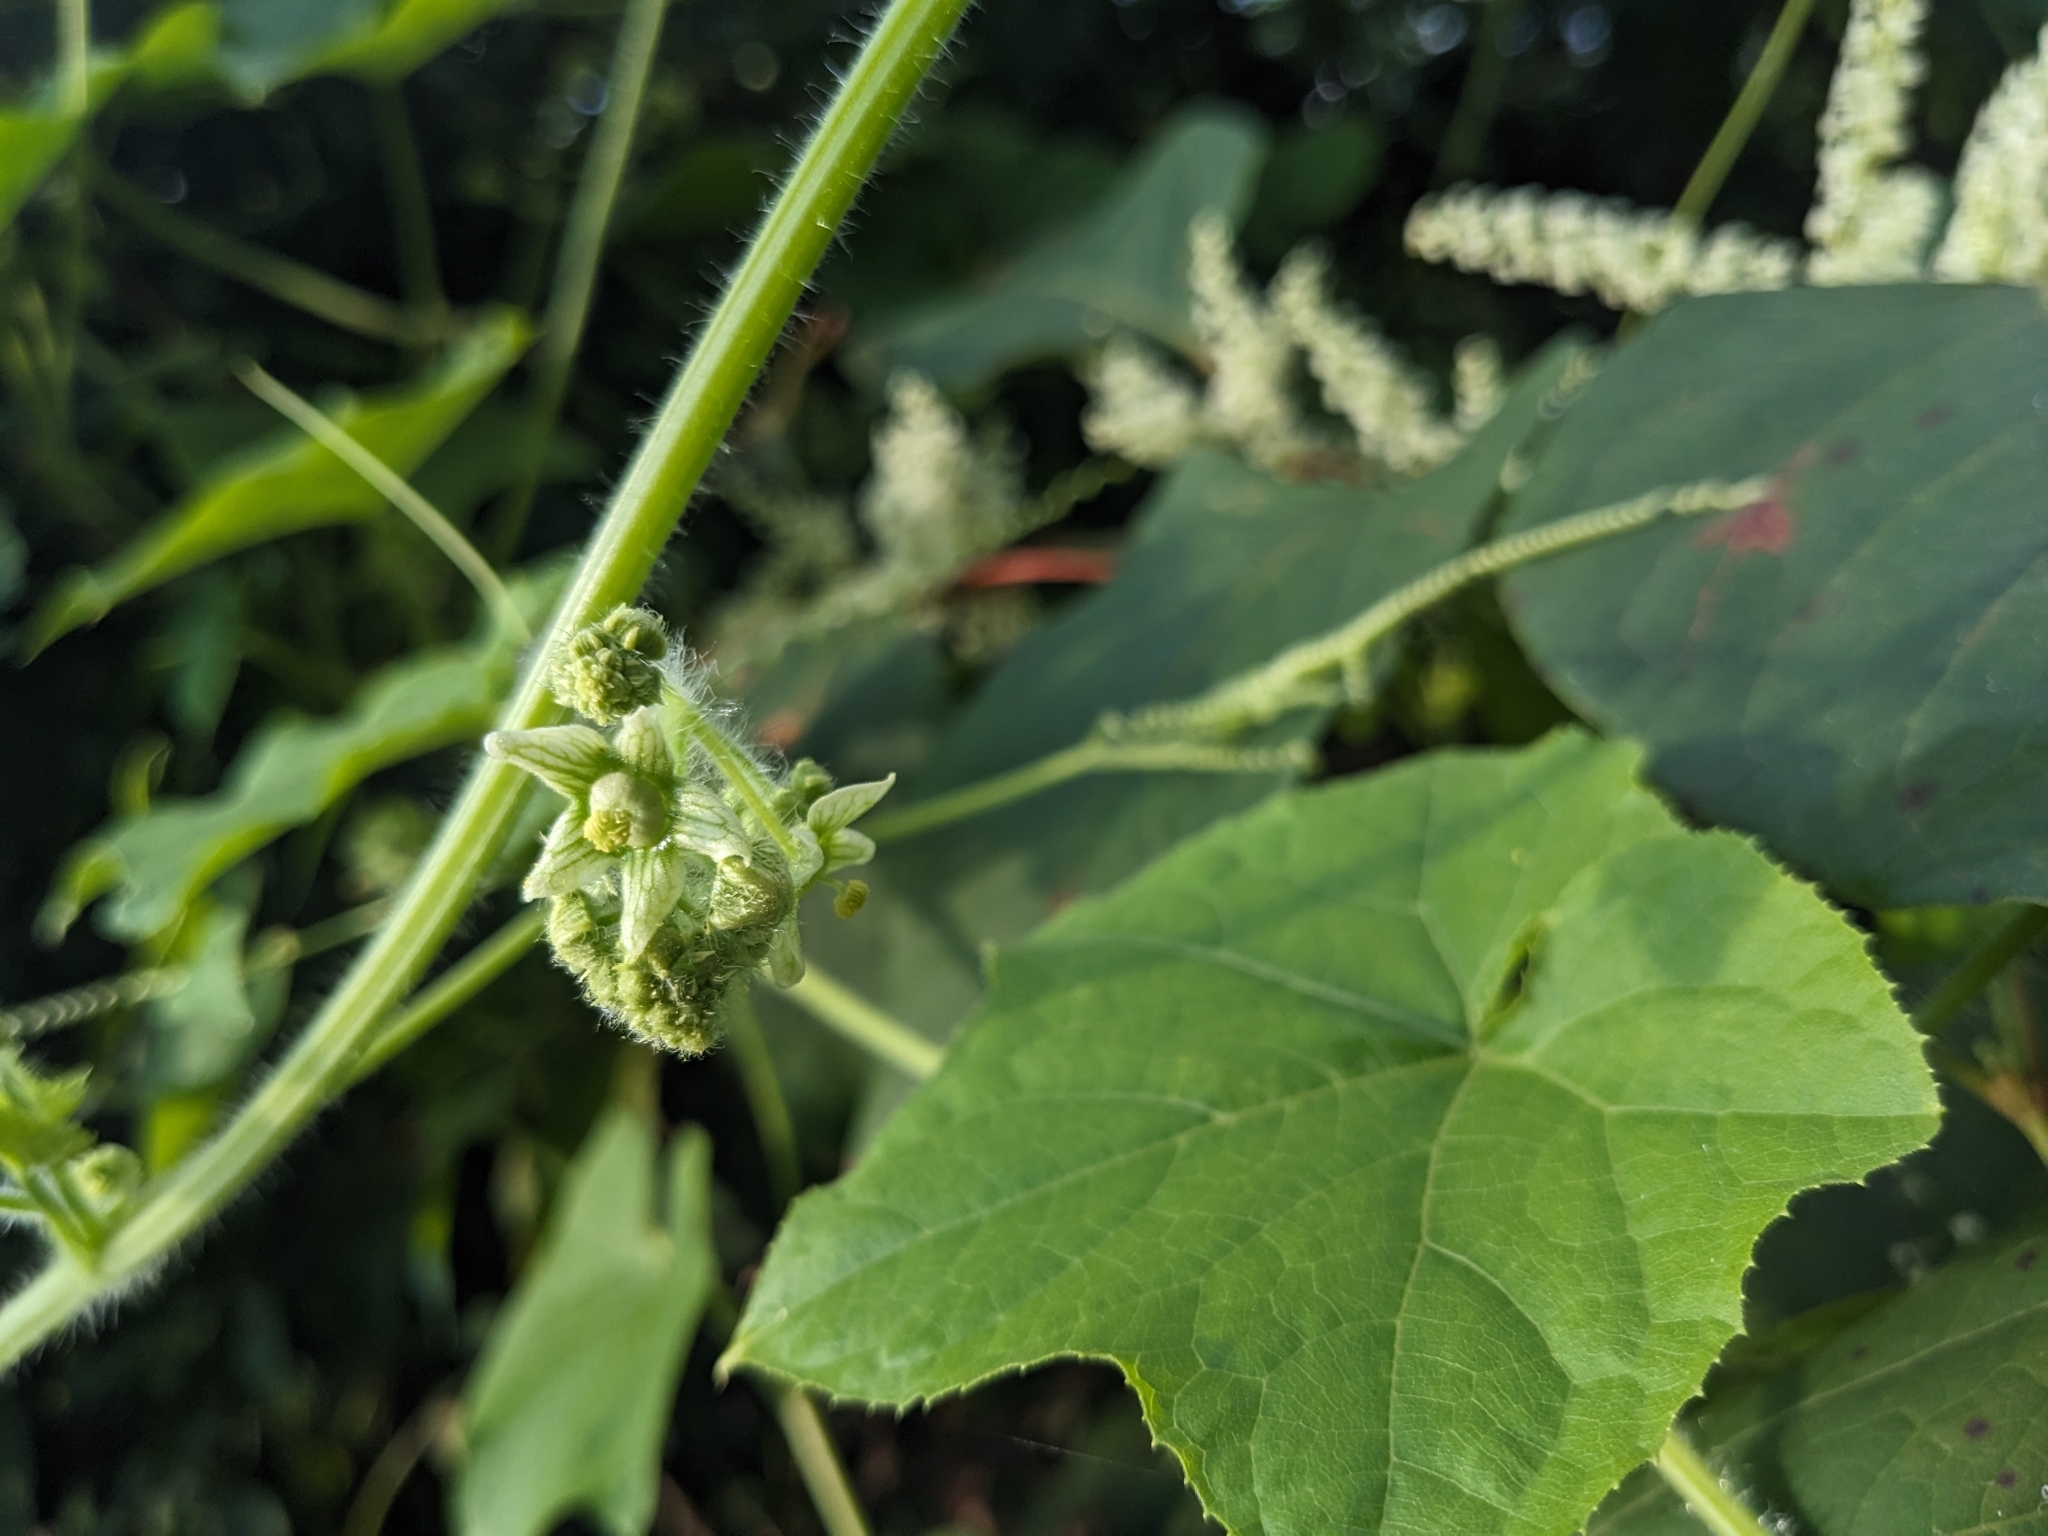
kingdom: Plantae
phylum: Tracheophyta
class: Magnoliopsida
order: Cucurbitales
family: Cucurbitaceae
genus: Sicyos
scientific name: Sicyos angulatus
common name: Angled burr cucumber
